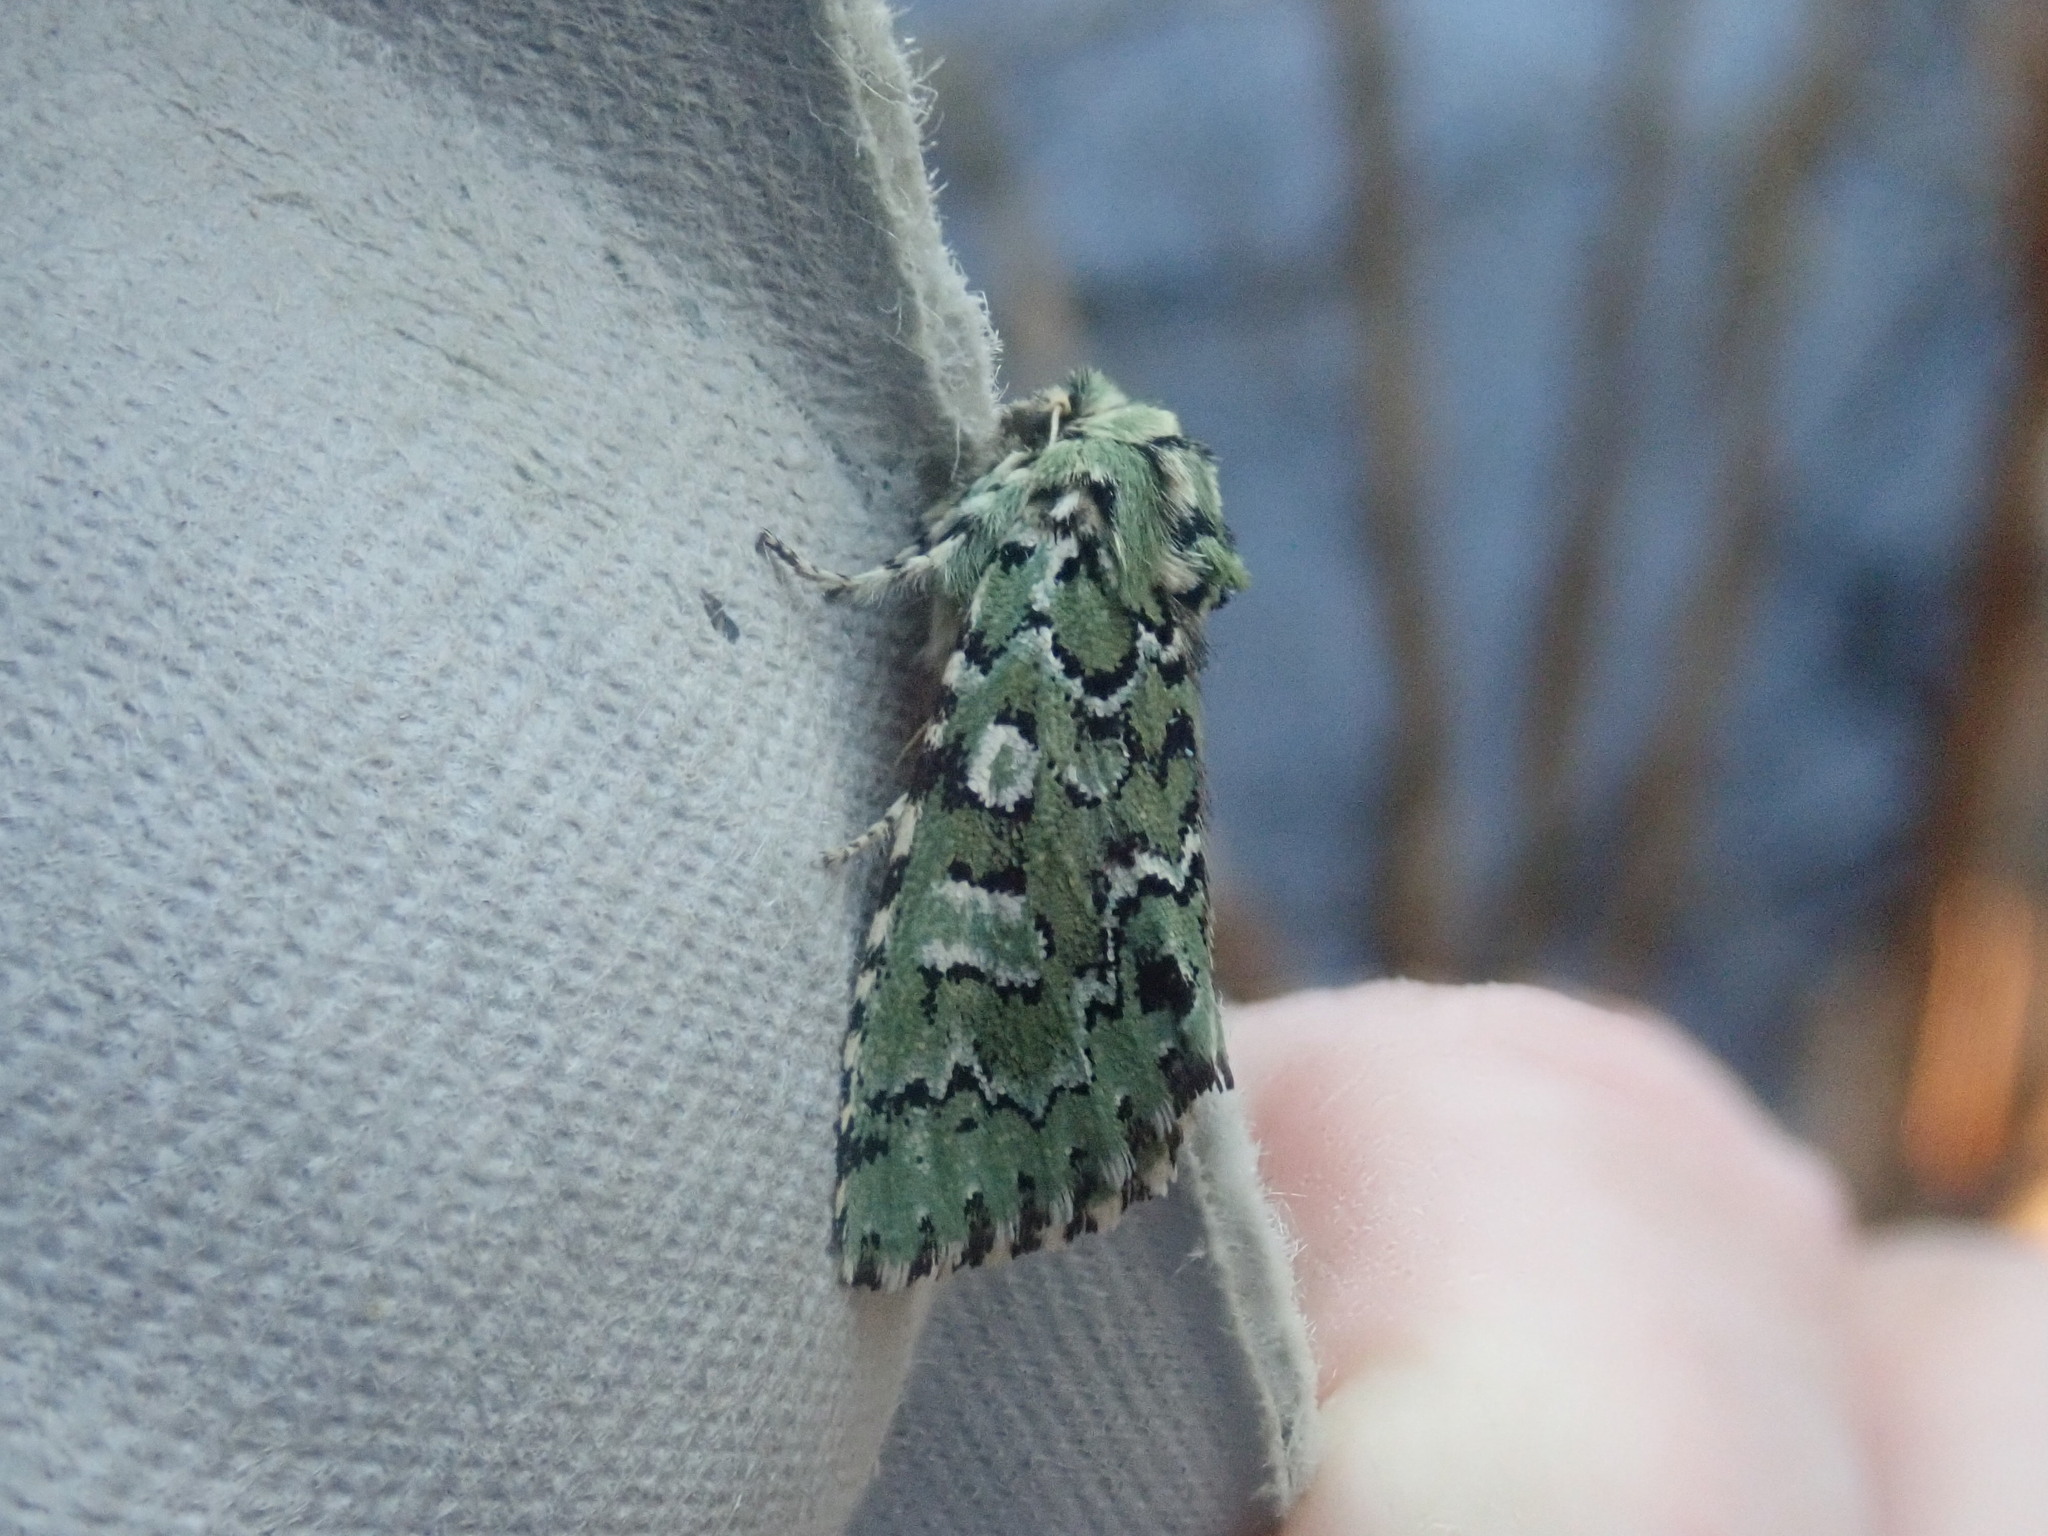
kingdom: Animalia
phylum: Arthropoda
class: Insecta
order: Lepidoptera
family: Noctuidae
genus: Feralia
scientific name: Feralia jocosa
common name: Joker
